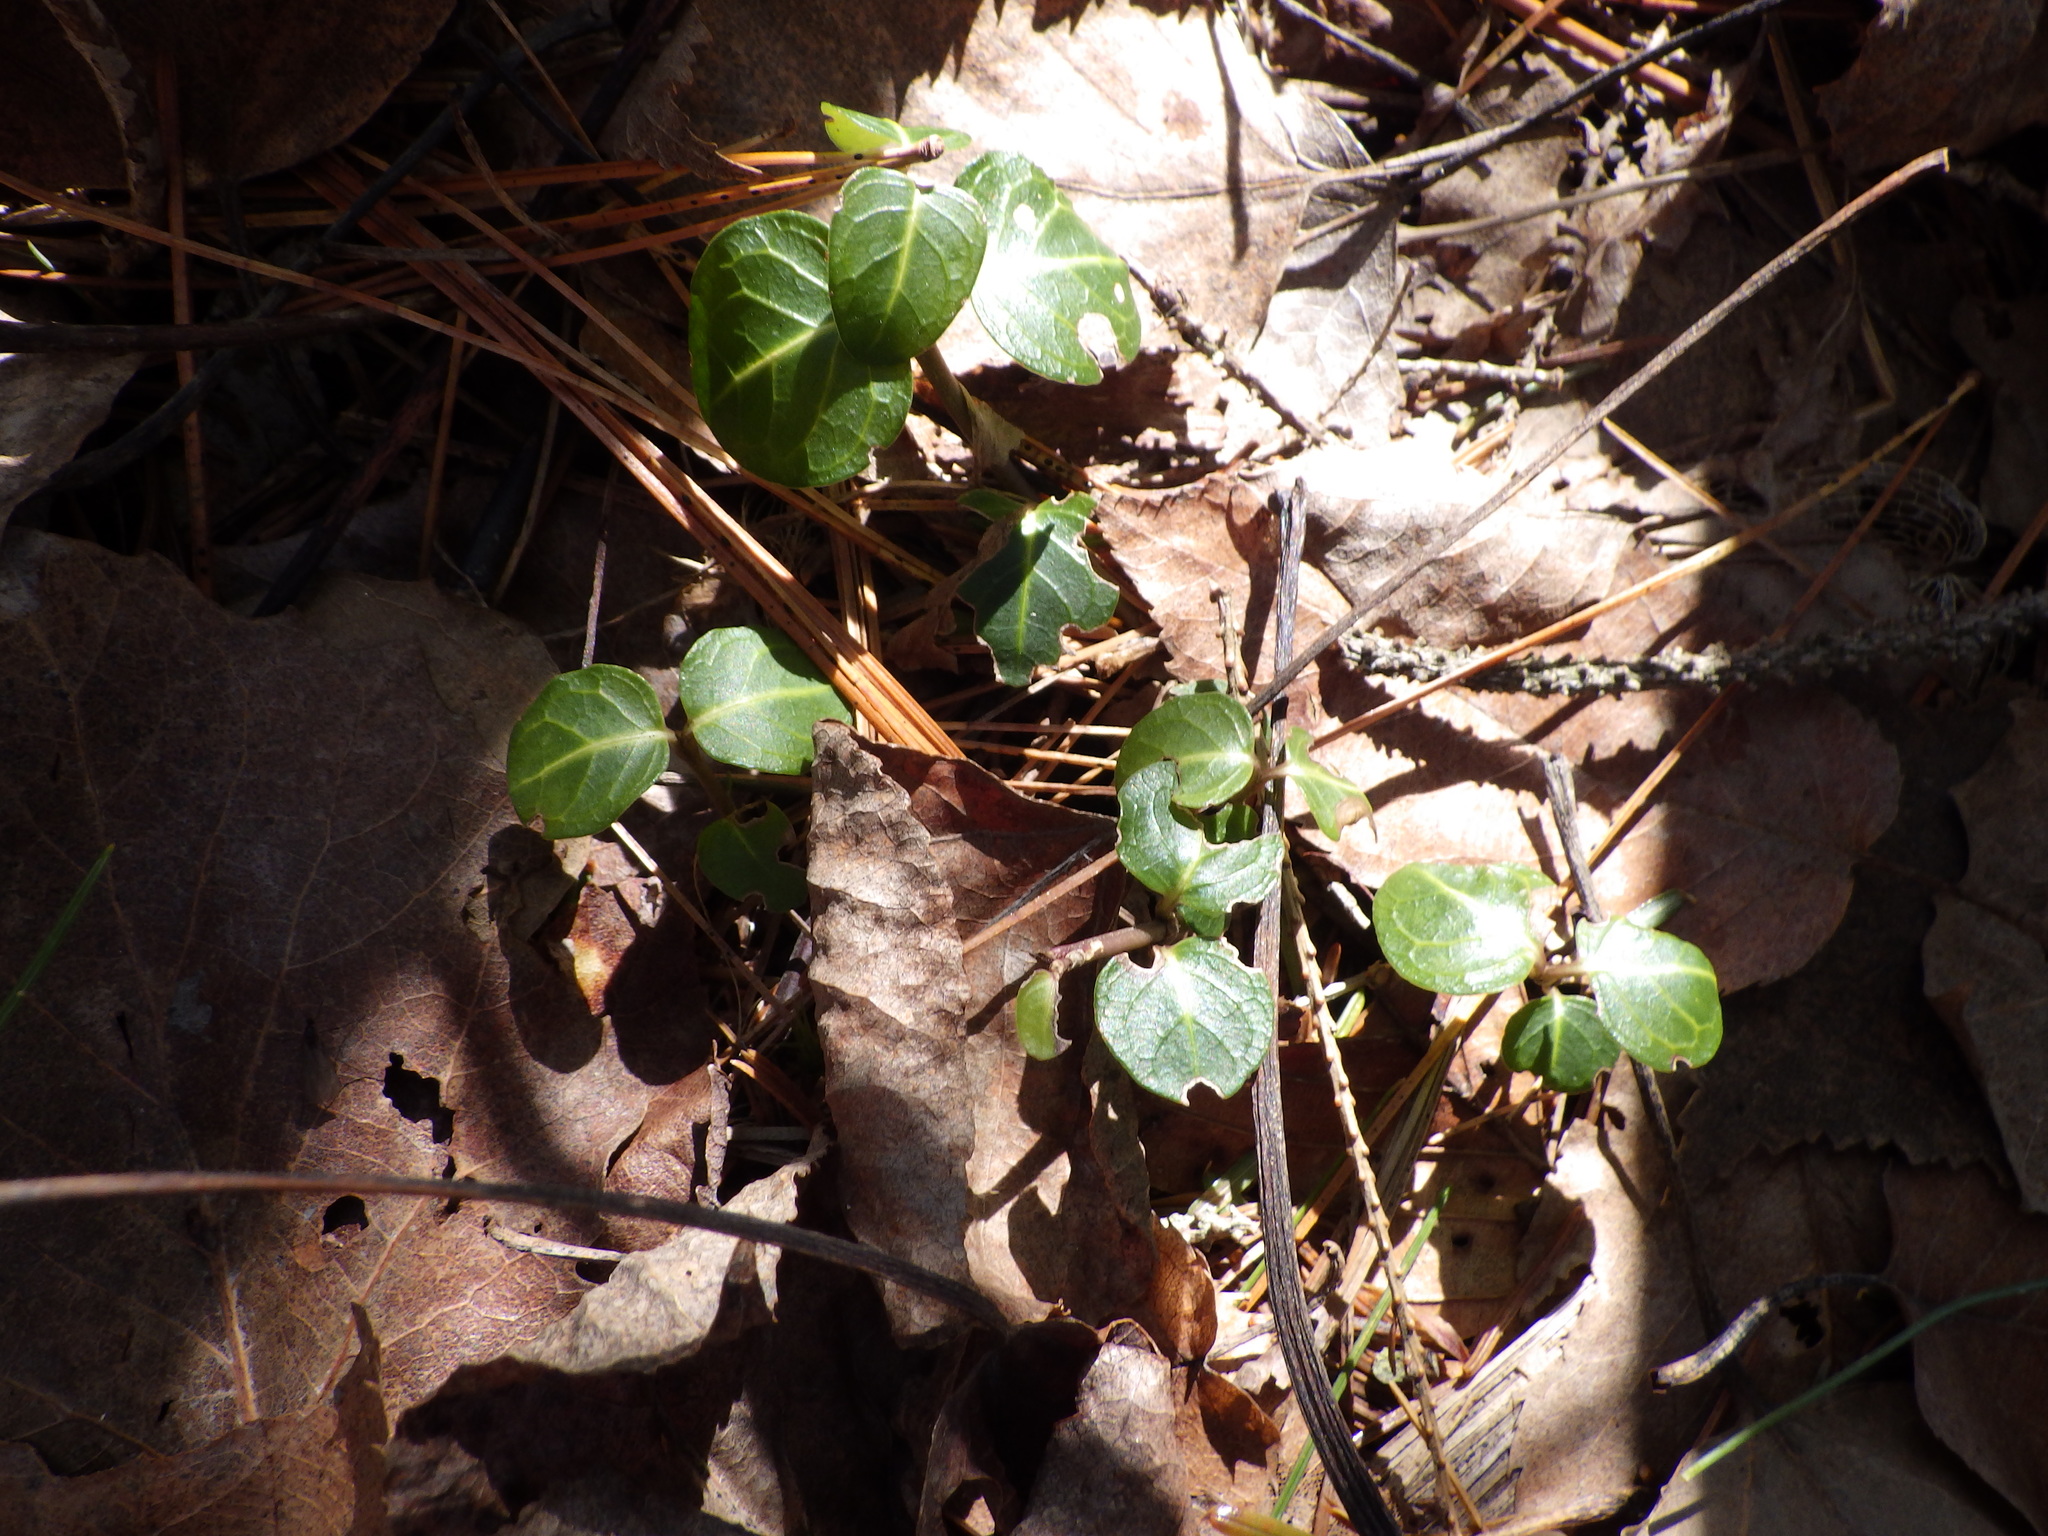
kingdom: Plantae
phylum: Tracheophyta
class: Magnoliopsida
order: Gentianales
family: Rubiaceae
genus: Mitchella
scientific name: Mitchella repens
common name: Partridge-berry
